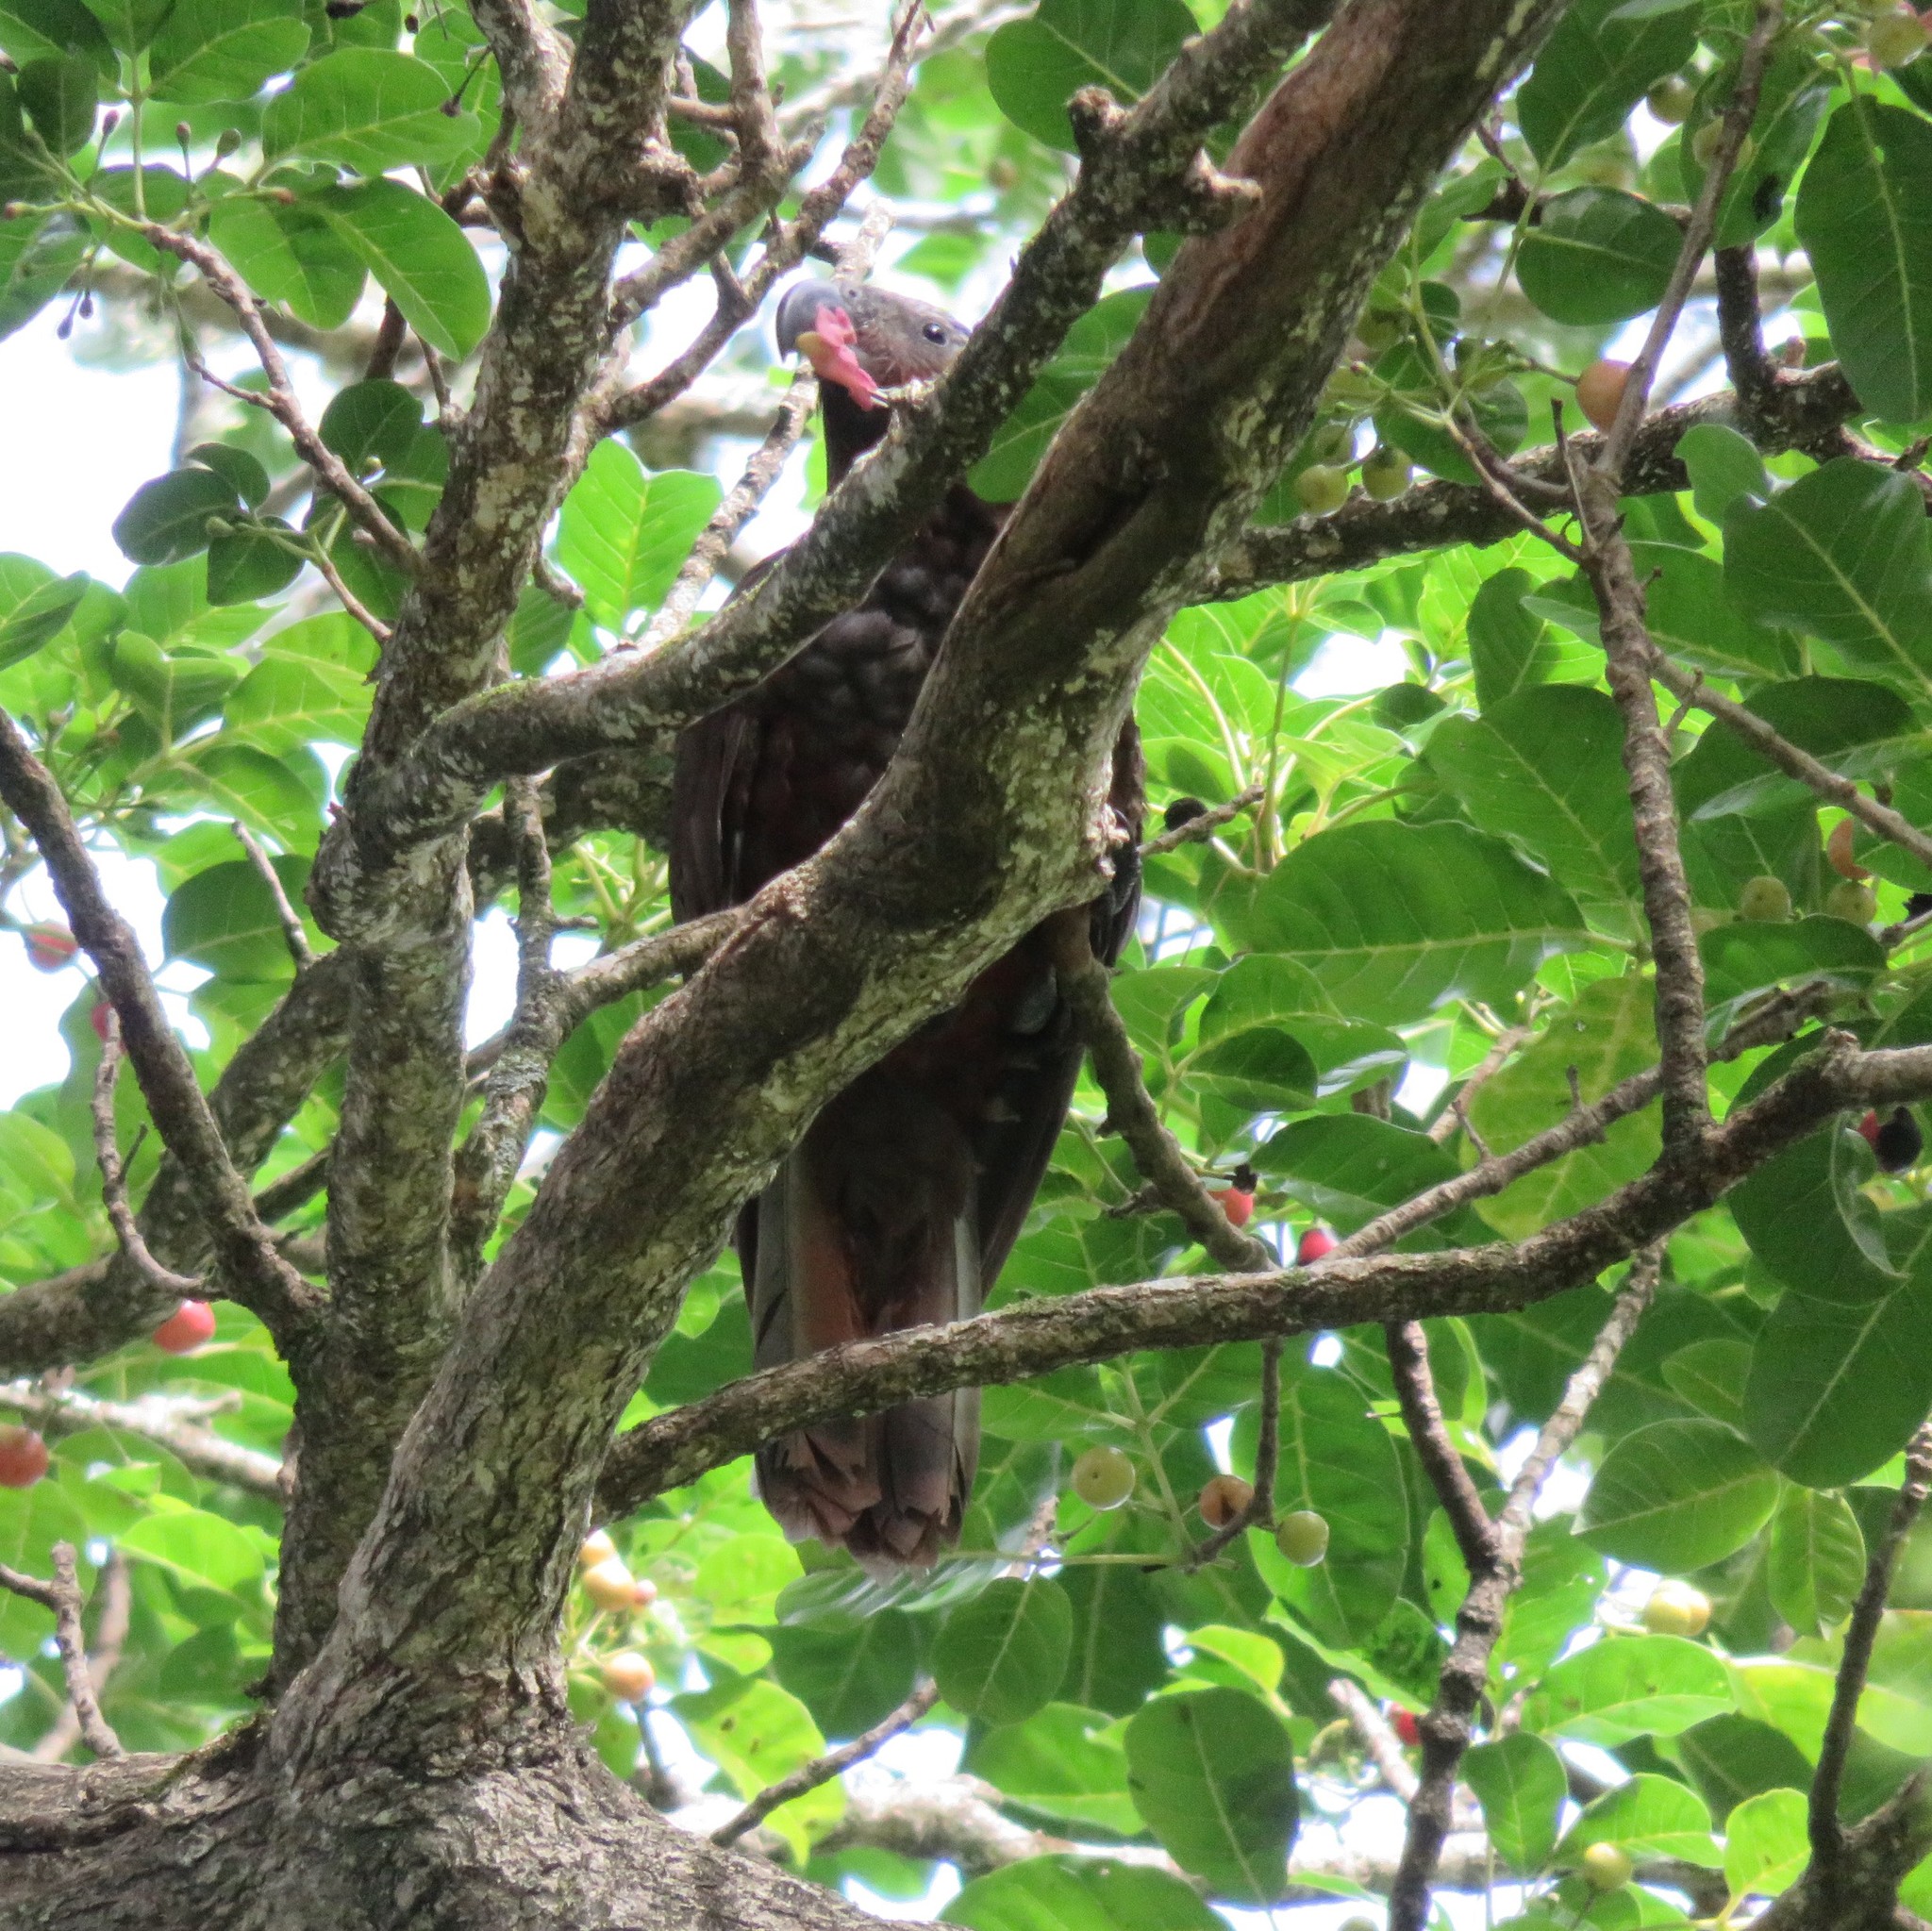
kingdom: Animalia
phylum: Chordata
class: Aves
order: Psittaciformes
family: Psittacidae
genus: Nestor
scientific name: Nestor meridionalis
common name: New zealand kaka
